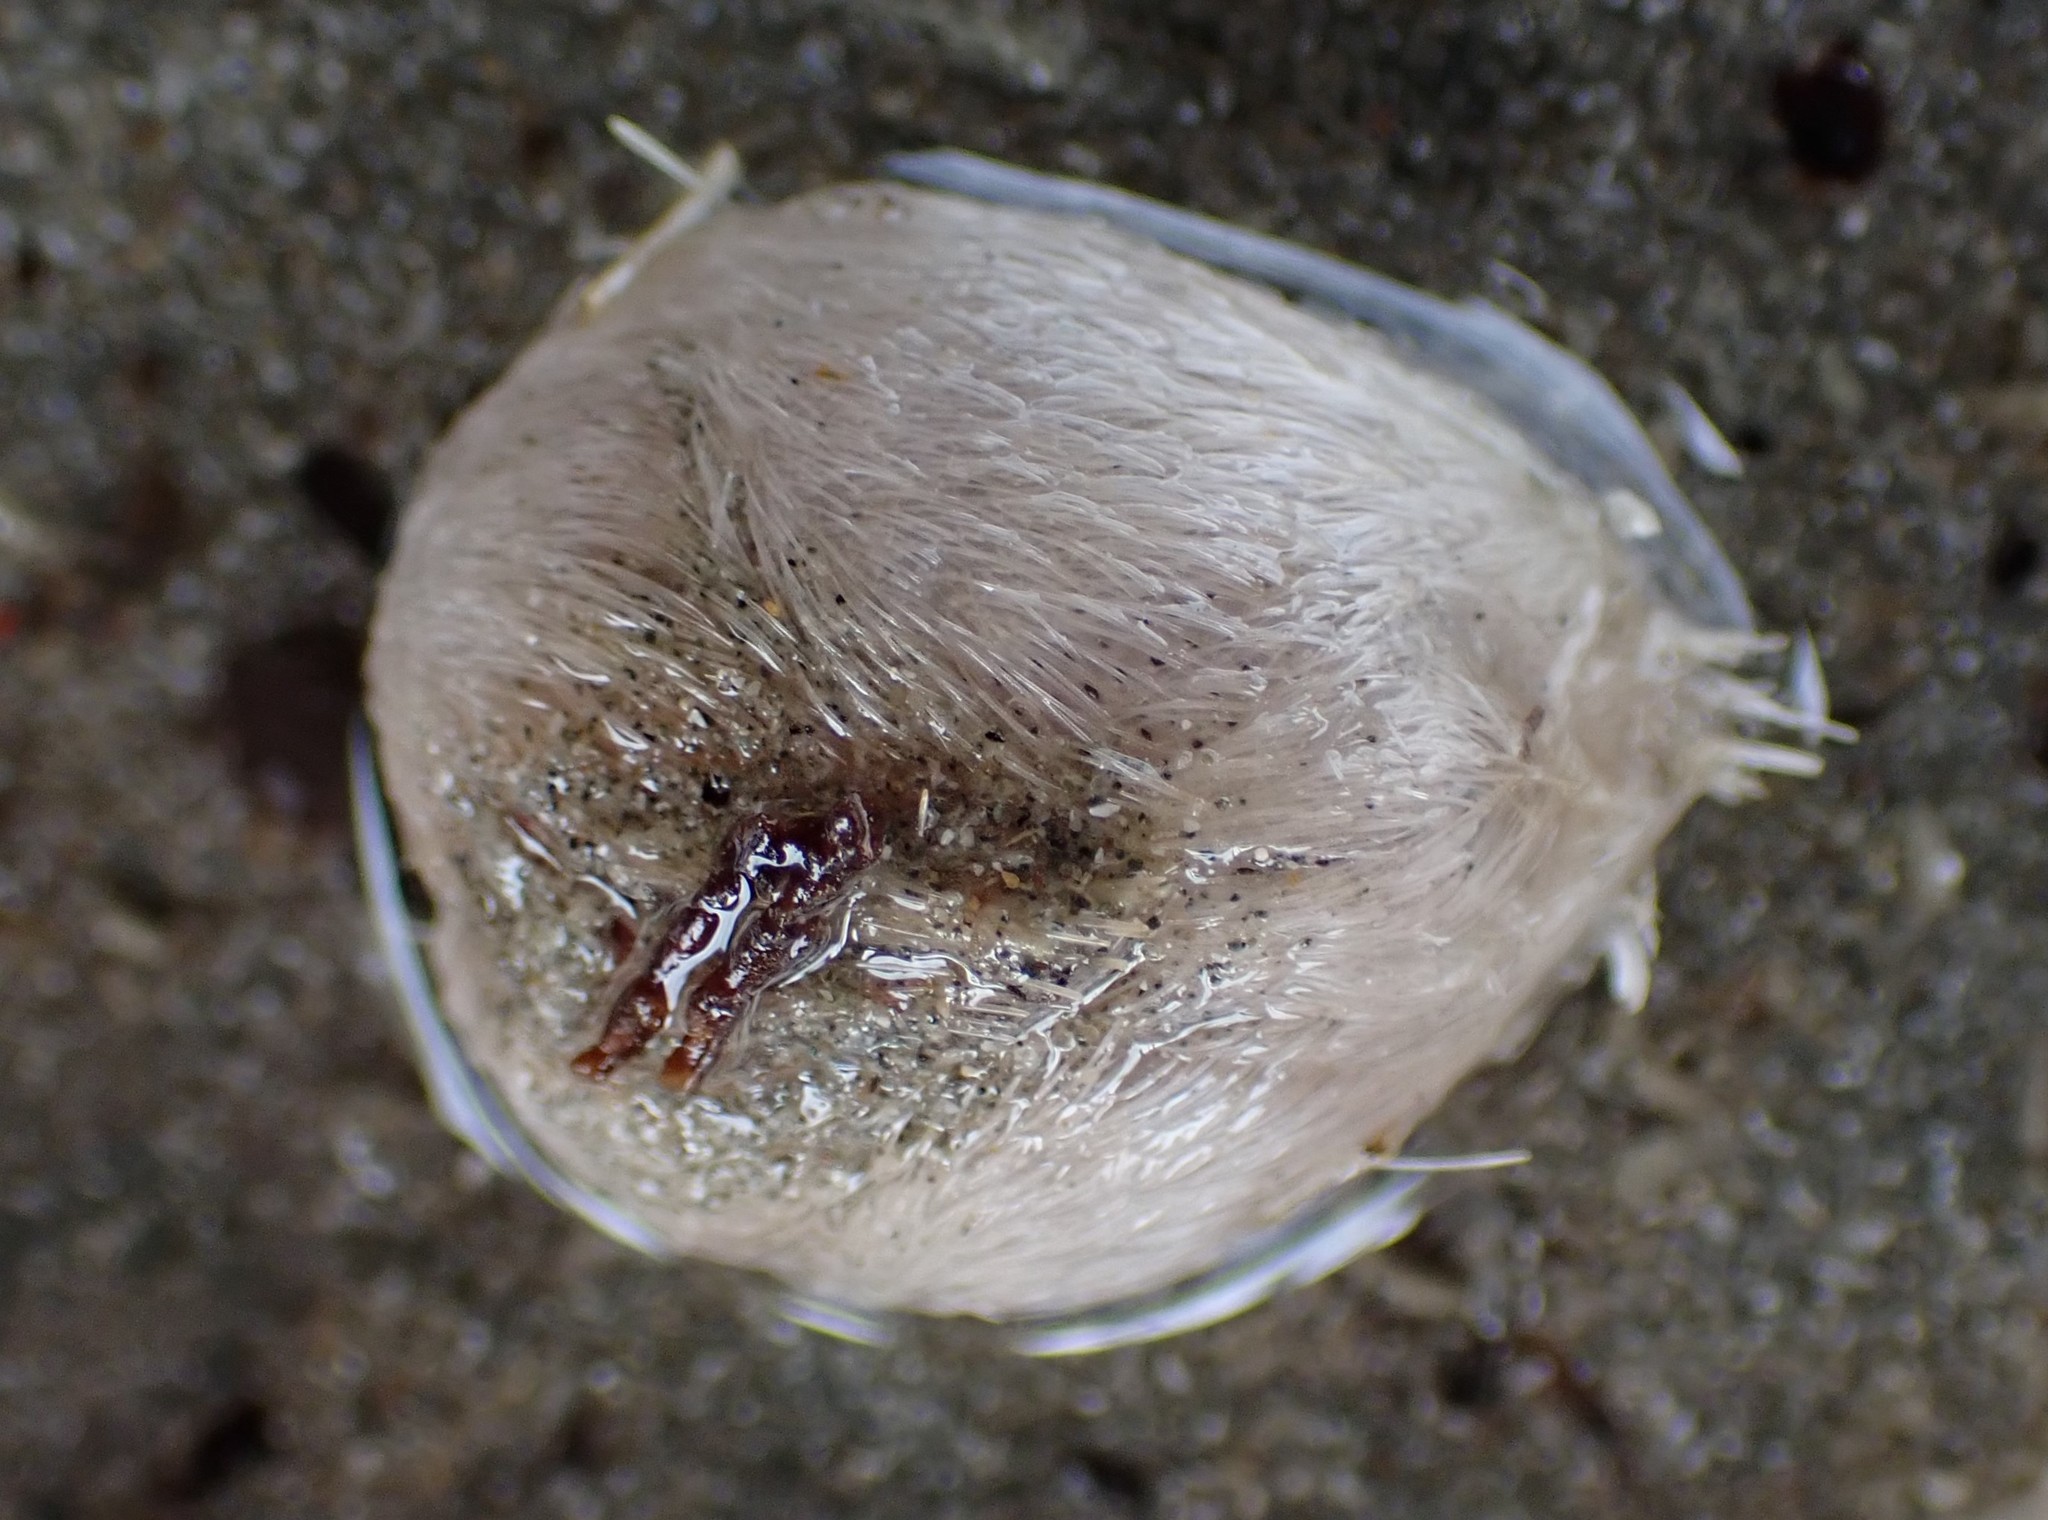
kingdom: Animalia
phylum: Echinodermata
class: Echinoidea
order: Spatangoida
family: Loveniidae
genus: Echinocardium
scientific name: Echinocardium cordatum
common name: Heart-urchin
